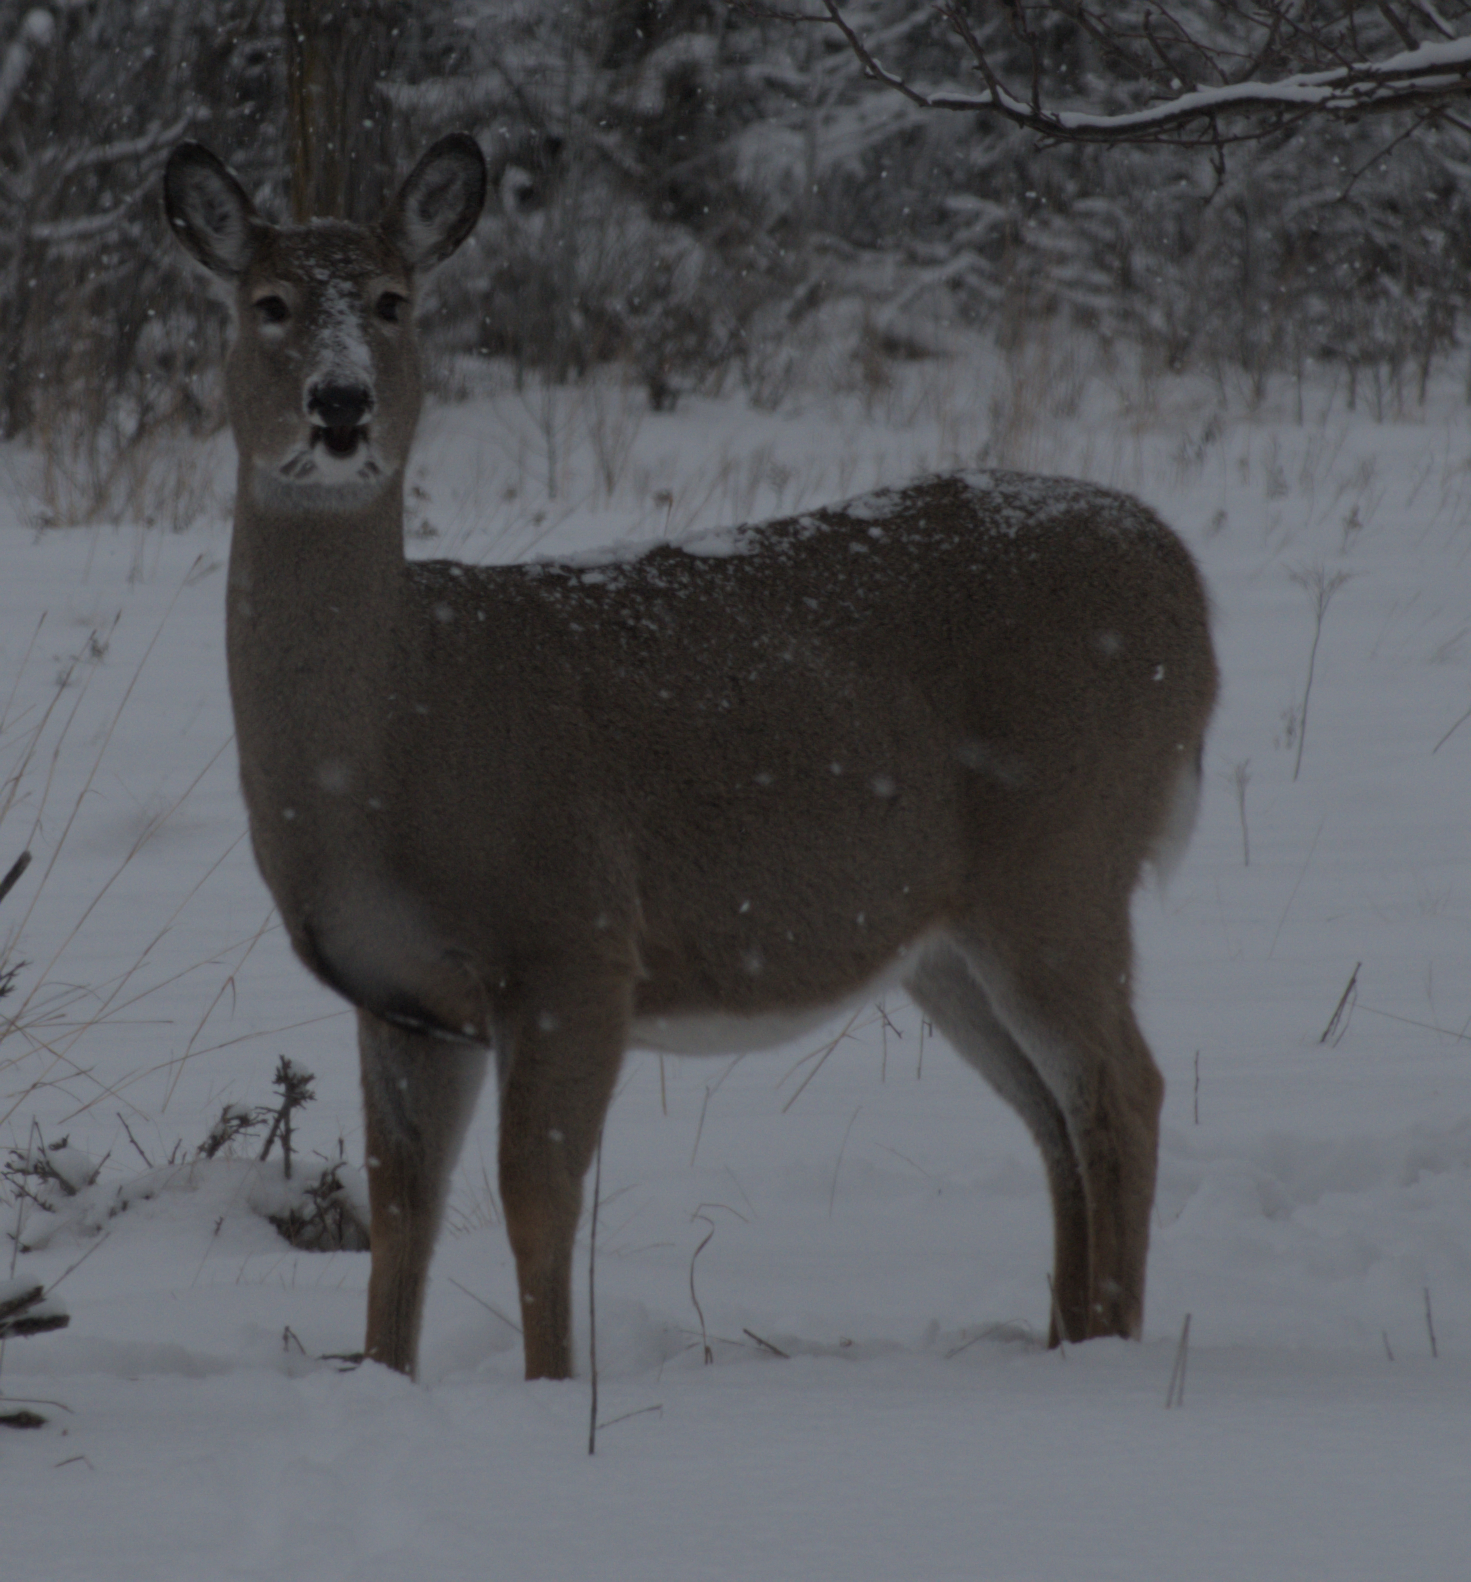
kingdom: Animalia
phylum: Chordata
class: Mammalia
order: Artiodactyla
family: Cervidae
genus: Odocoileus
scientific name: Odocoileus virginianus
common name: White-tailed deer
